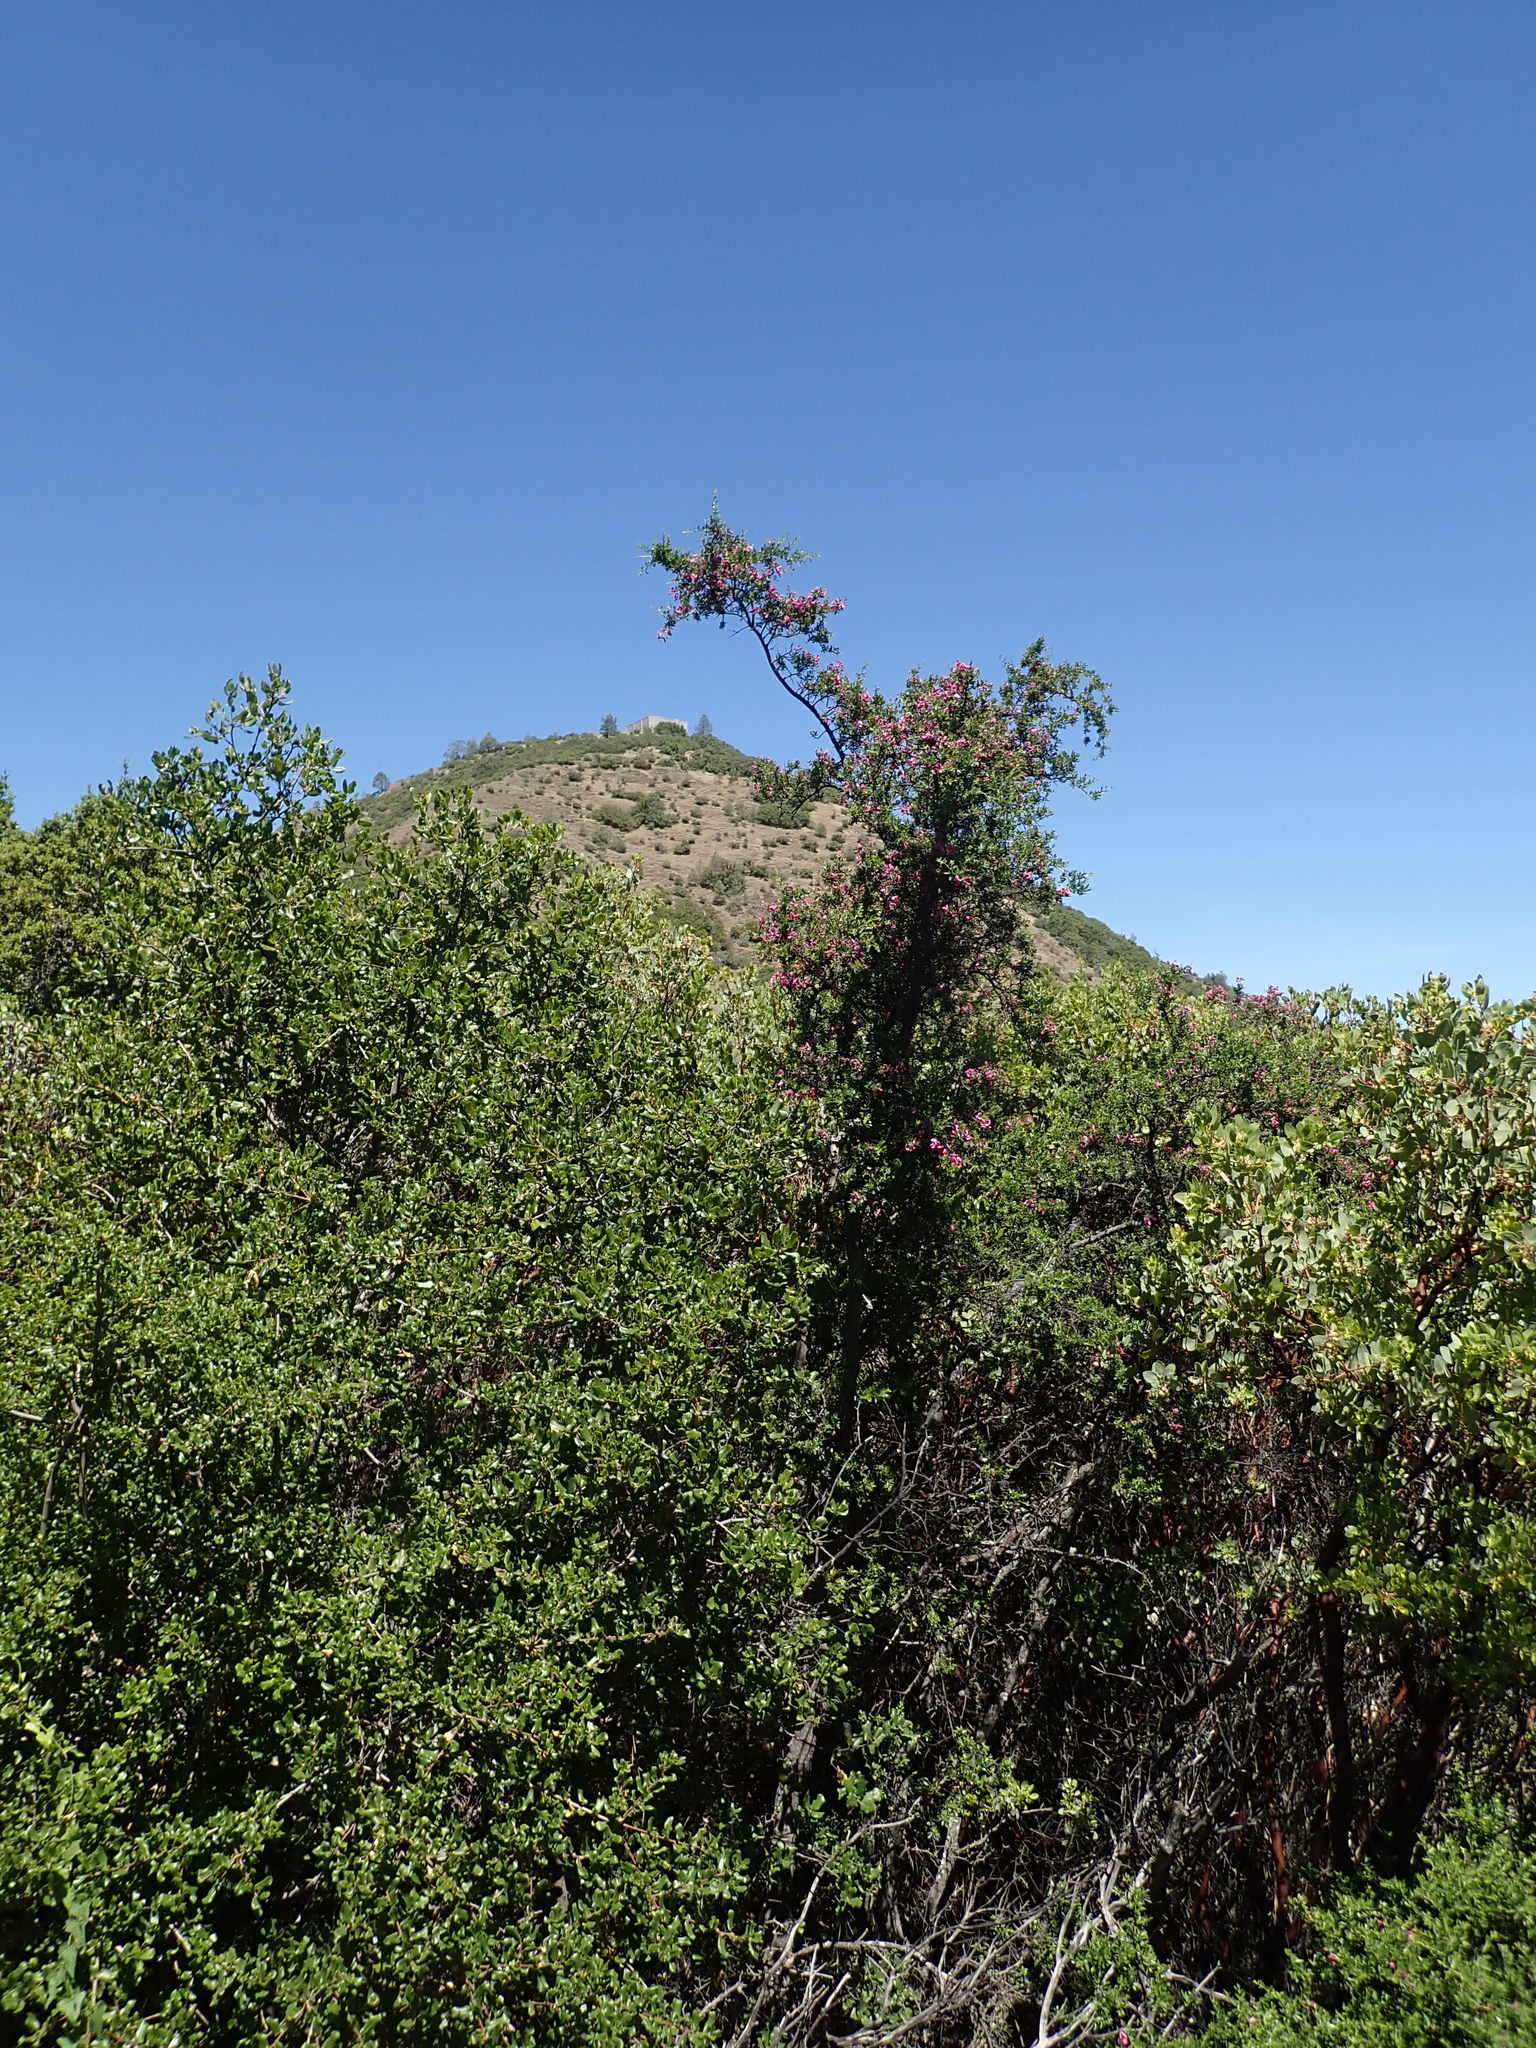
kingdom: Plantae
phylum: Tracheophyta
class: Magnoliopsida
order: Fabales
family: Fabaceae
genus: Pickeringia
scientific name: Pickeringia montana
